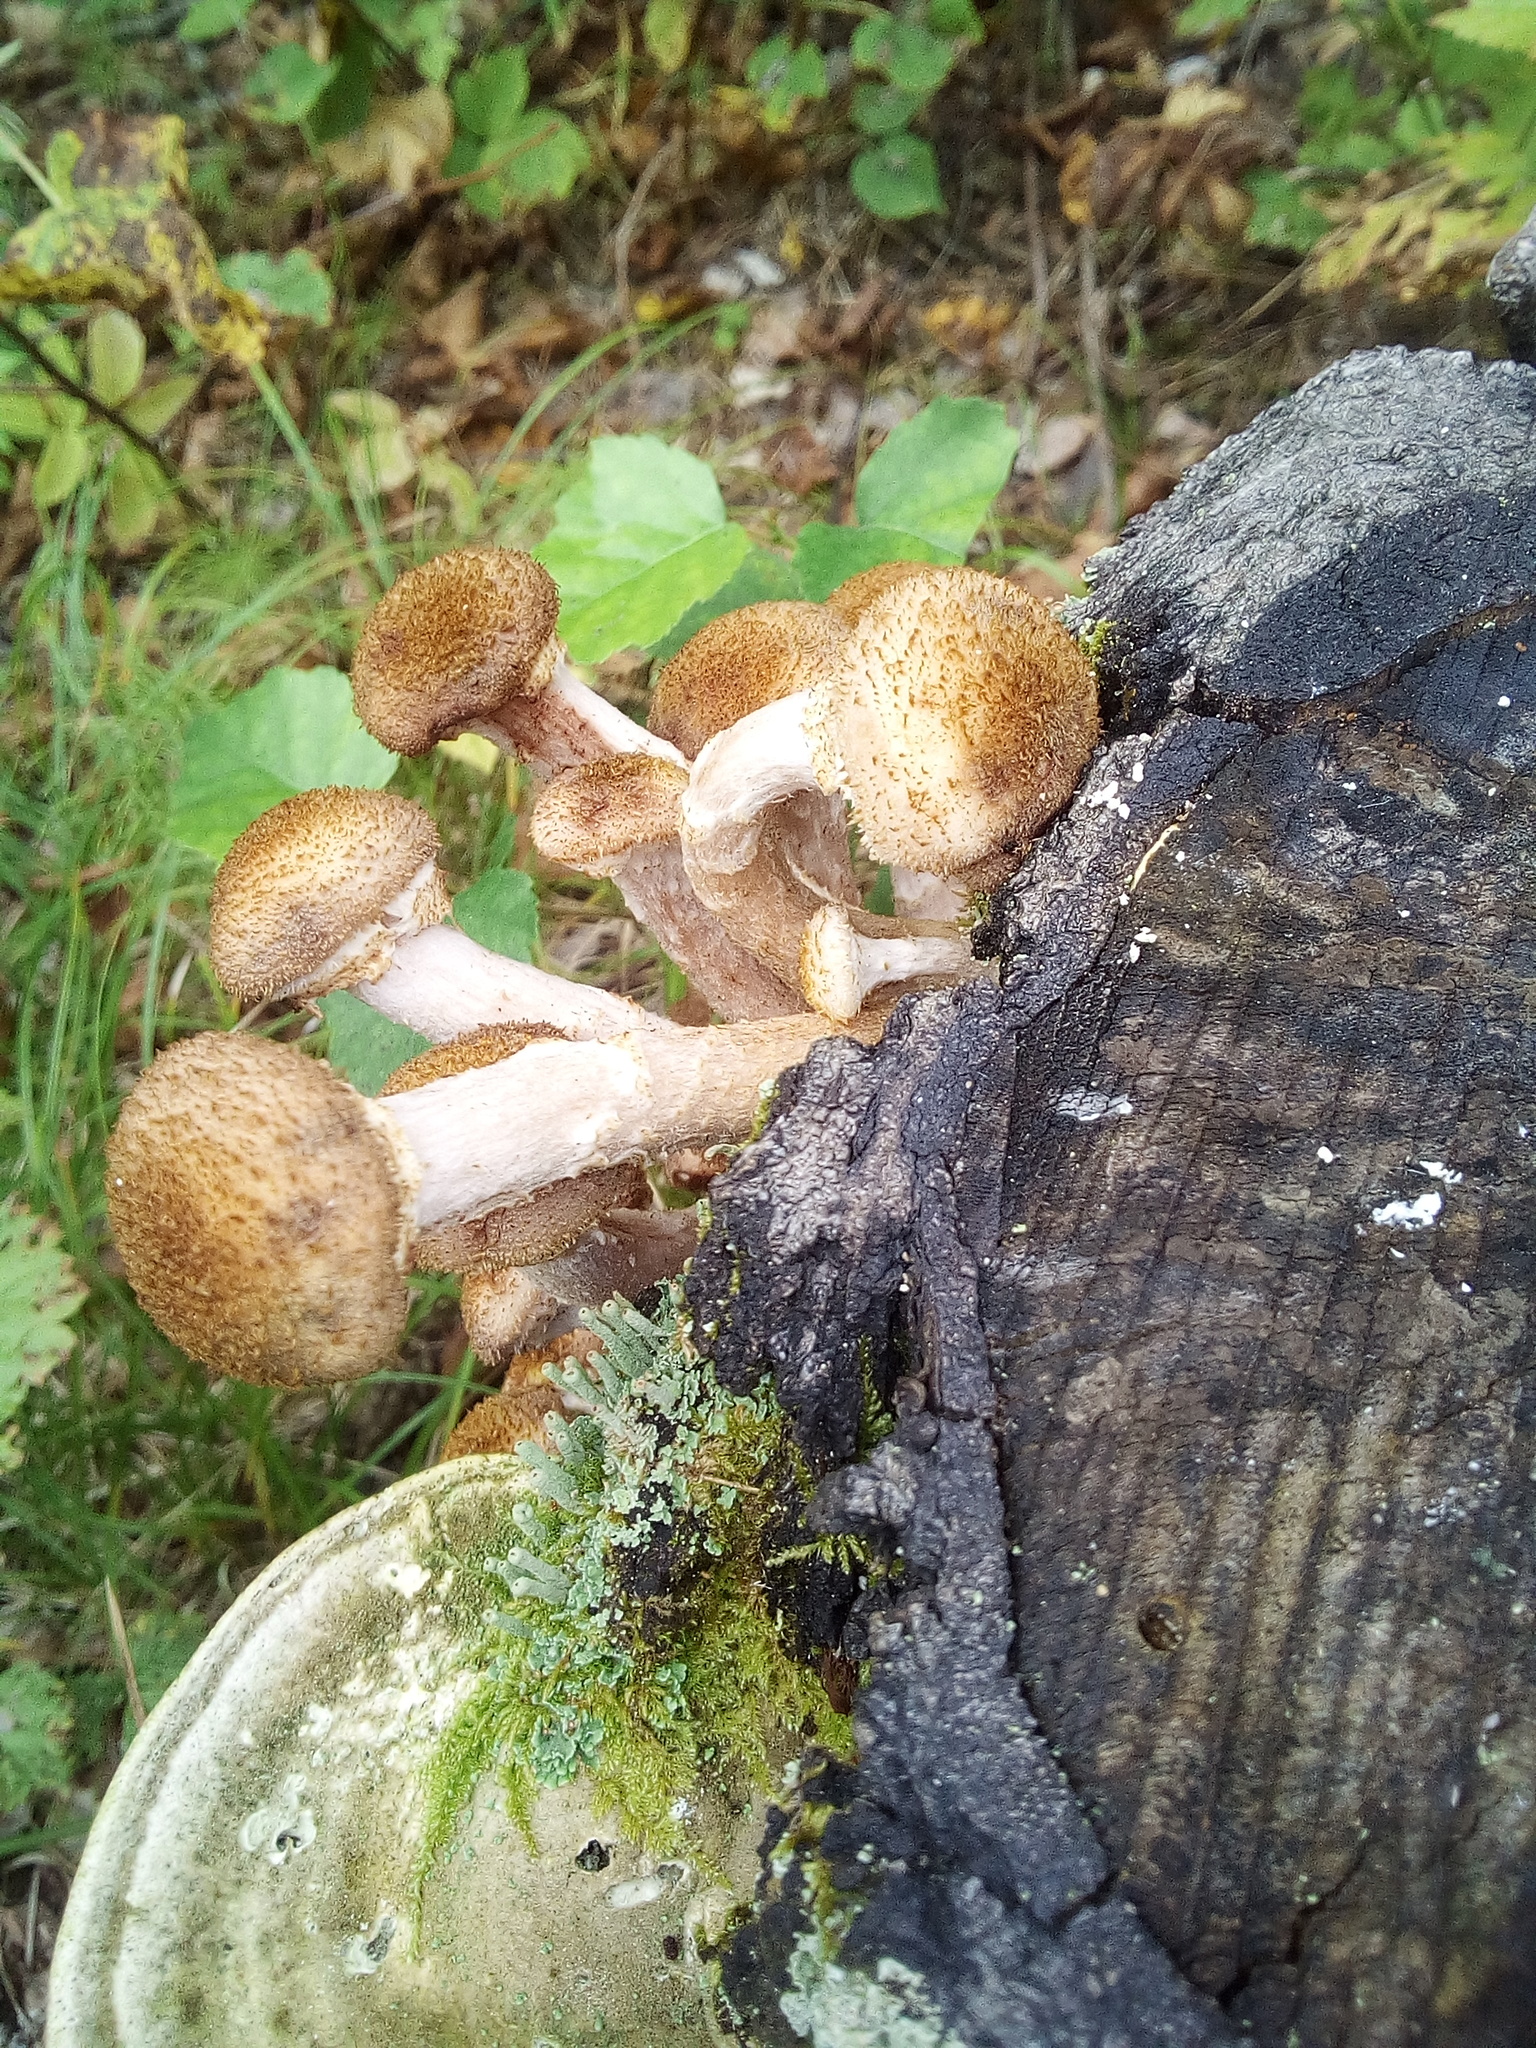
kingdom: Fungi
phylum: Basidiomycota
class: Agaricomycetes
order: Agaricales
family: Physalacriaceae
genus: Armillaria
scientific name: Armillaria borealis
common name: Northern honey fungus
